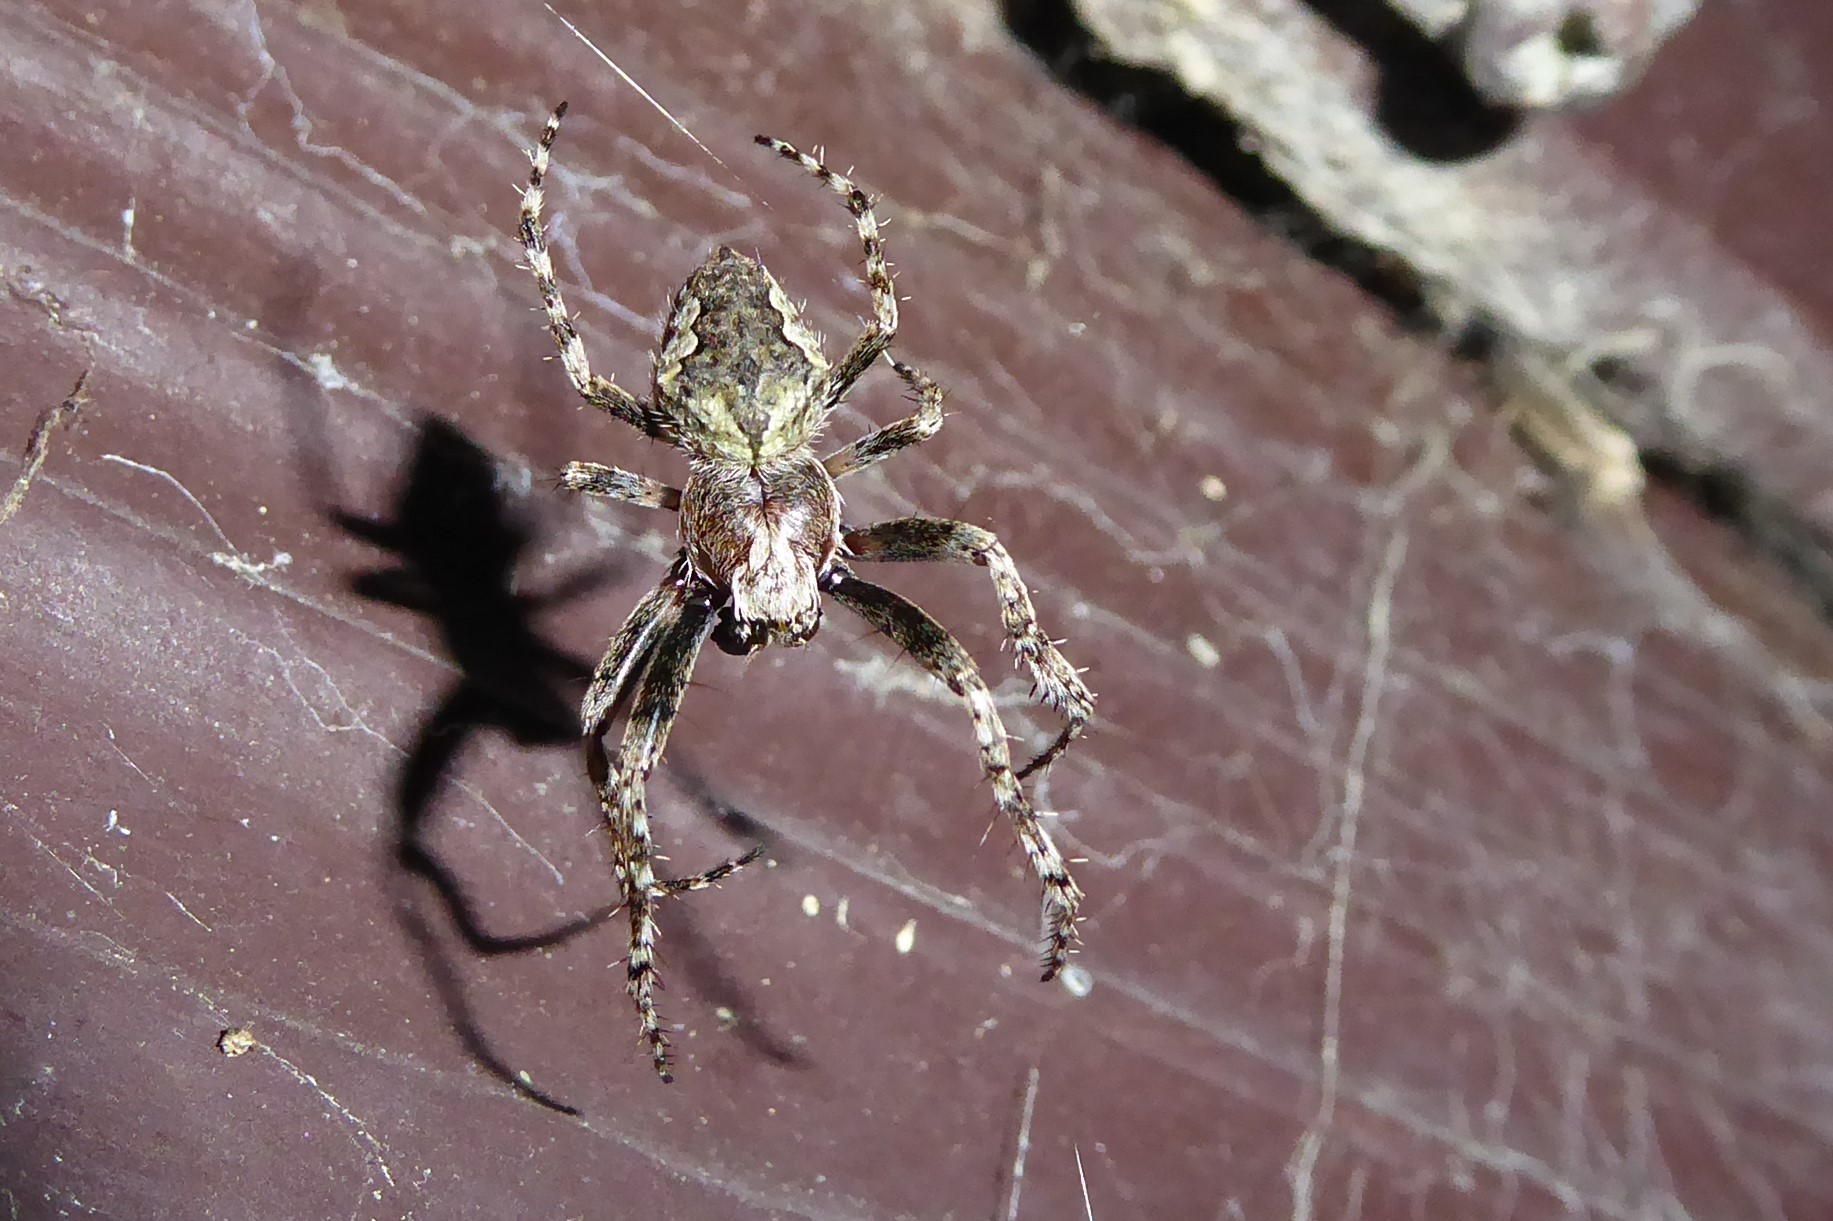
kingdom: Animalia
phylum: Arthropoda
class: Arachnida
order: Araneae
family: Araneidae
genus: Eriophora
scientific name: Eriophora pustulosa
